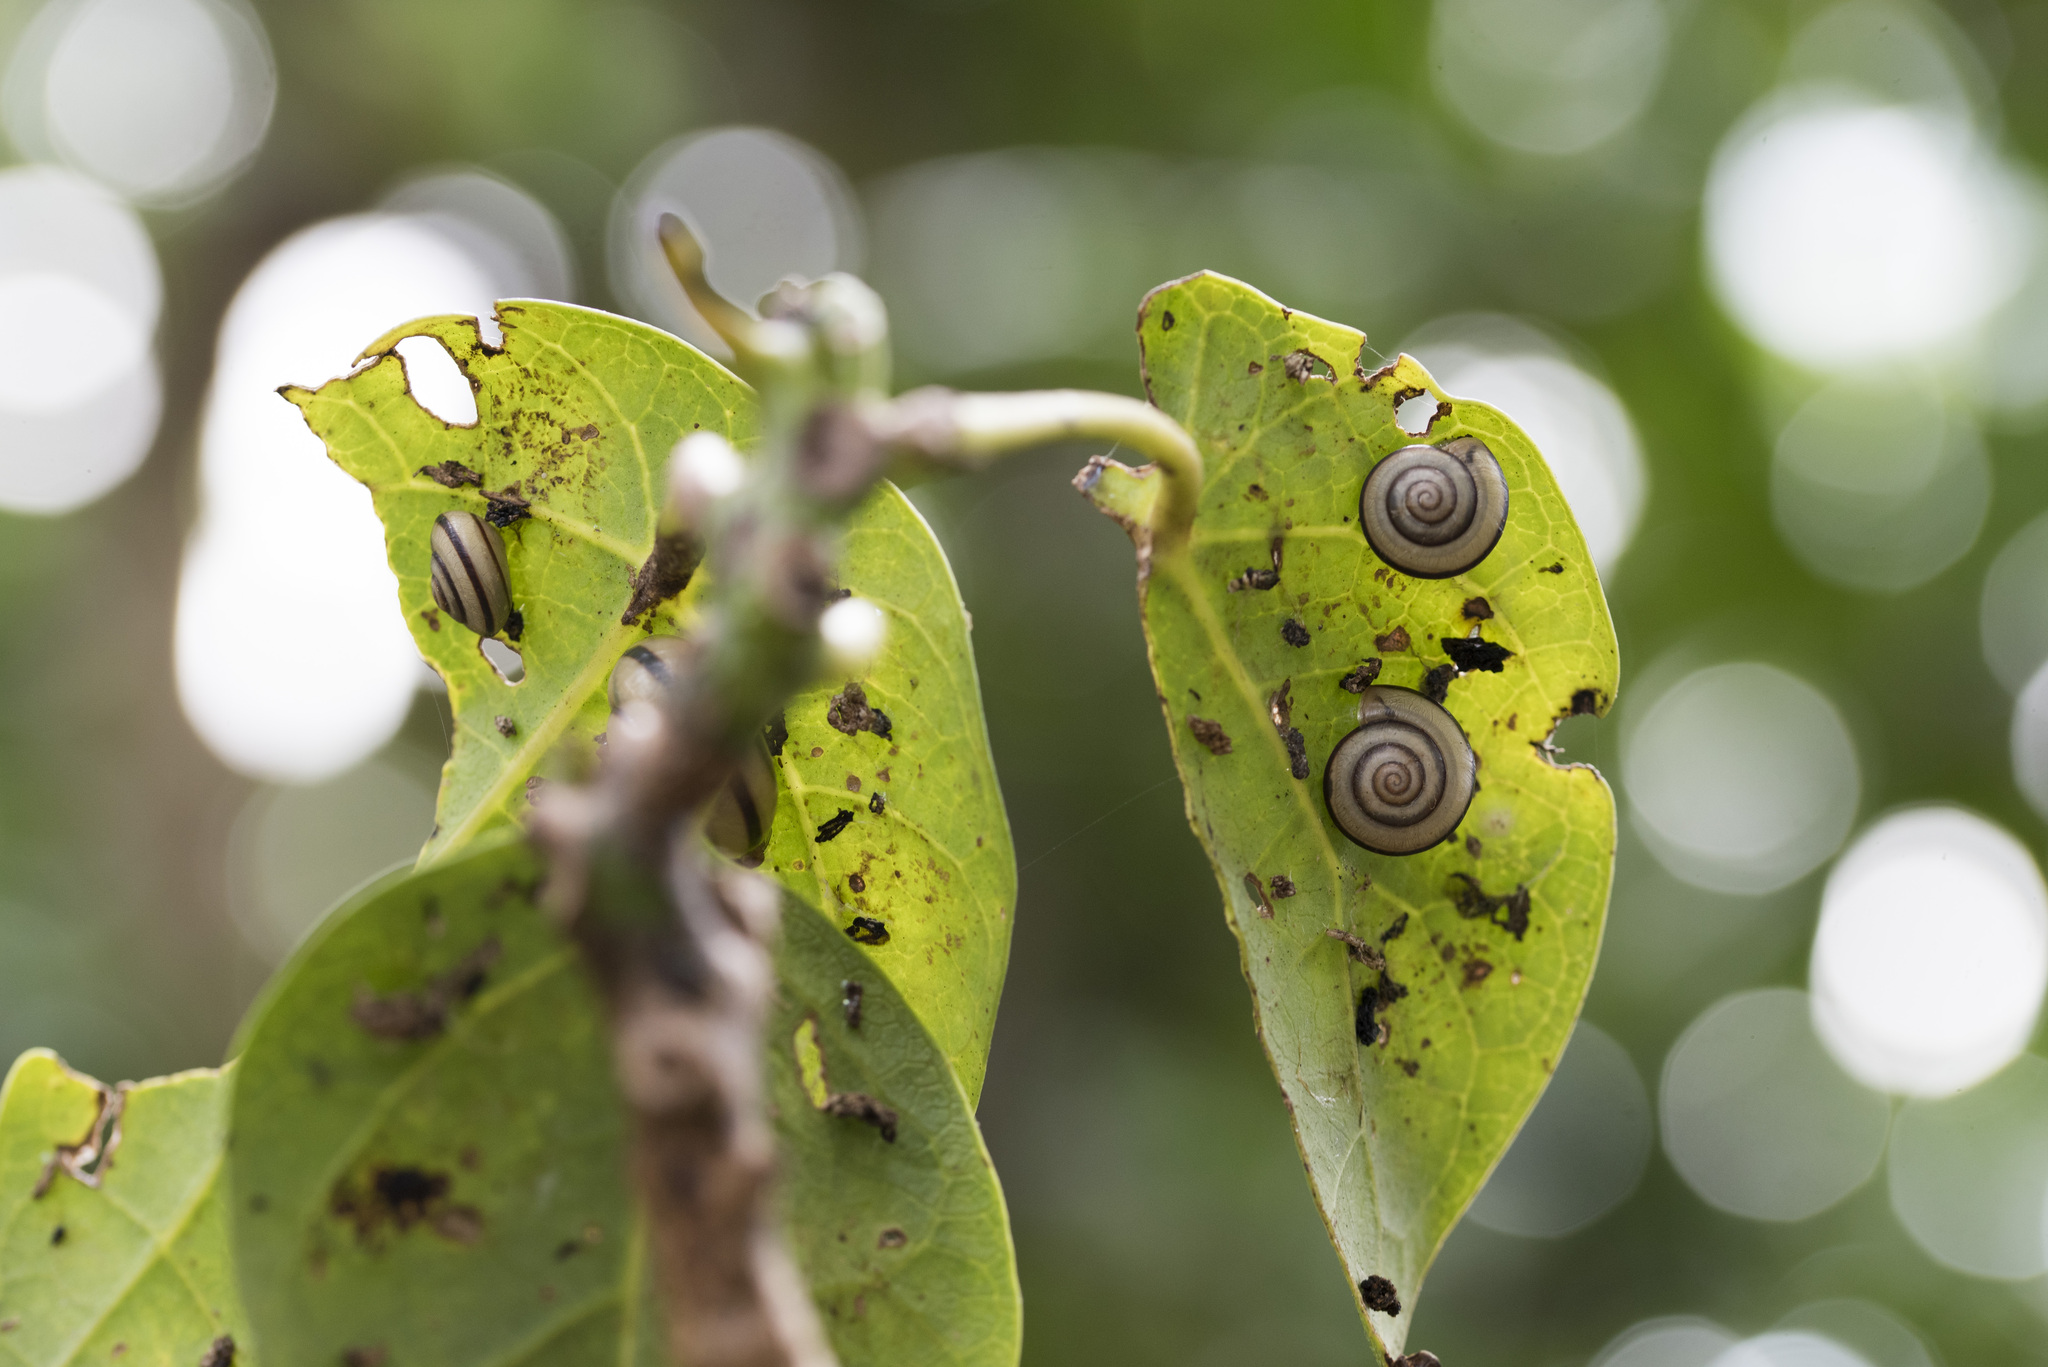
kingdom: Animalia
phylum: Mollusca
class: Gastropoda
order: Stylommatophora
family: Camaenidae
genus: Pancala
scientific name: Pancala batanica
